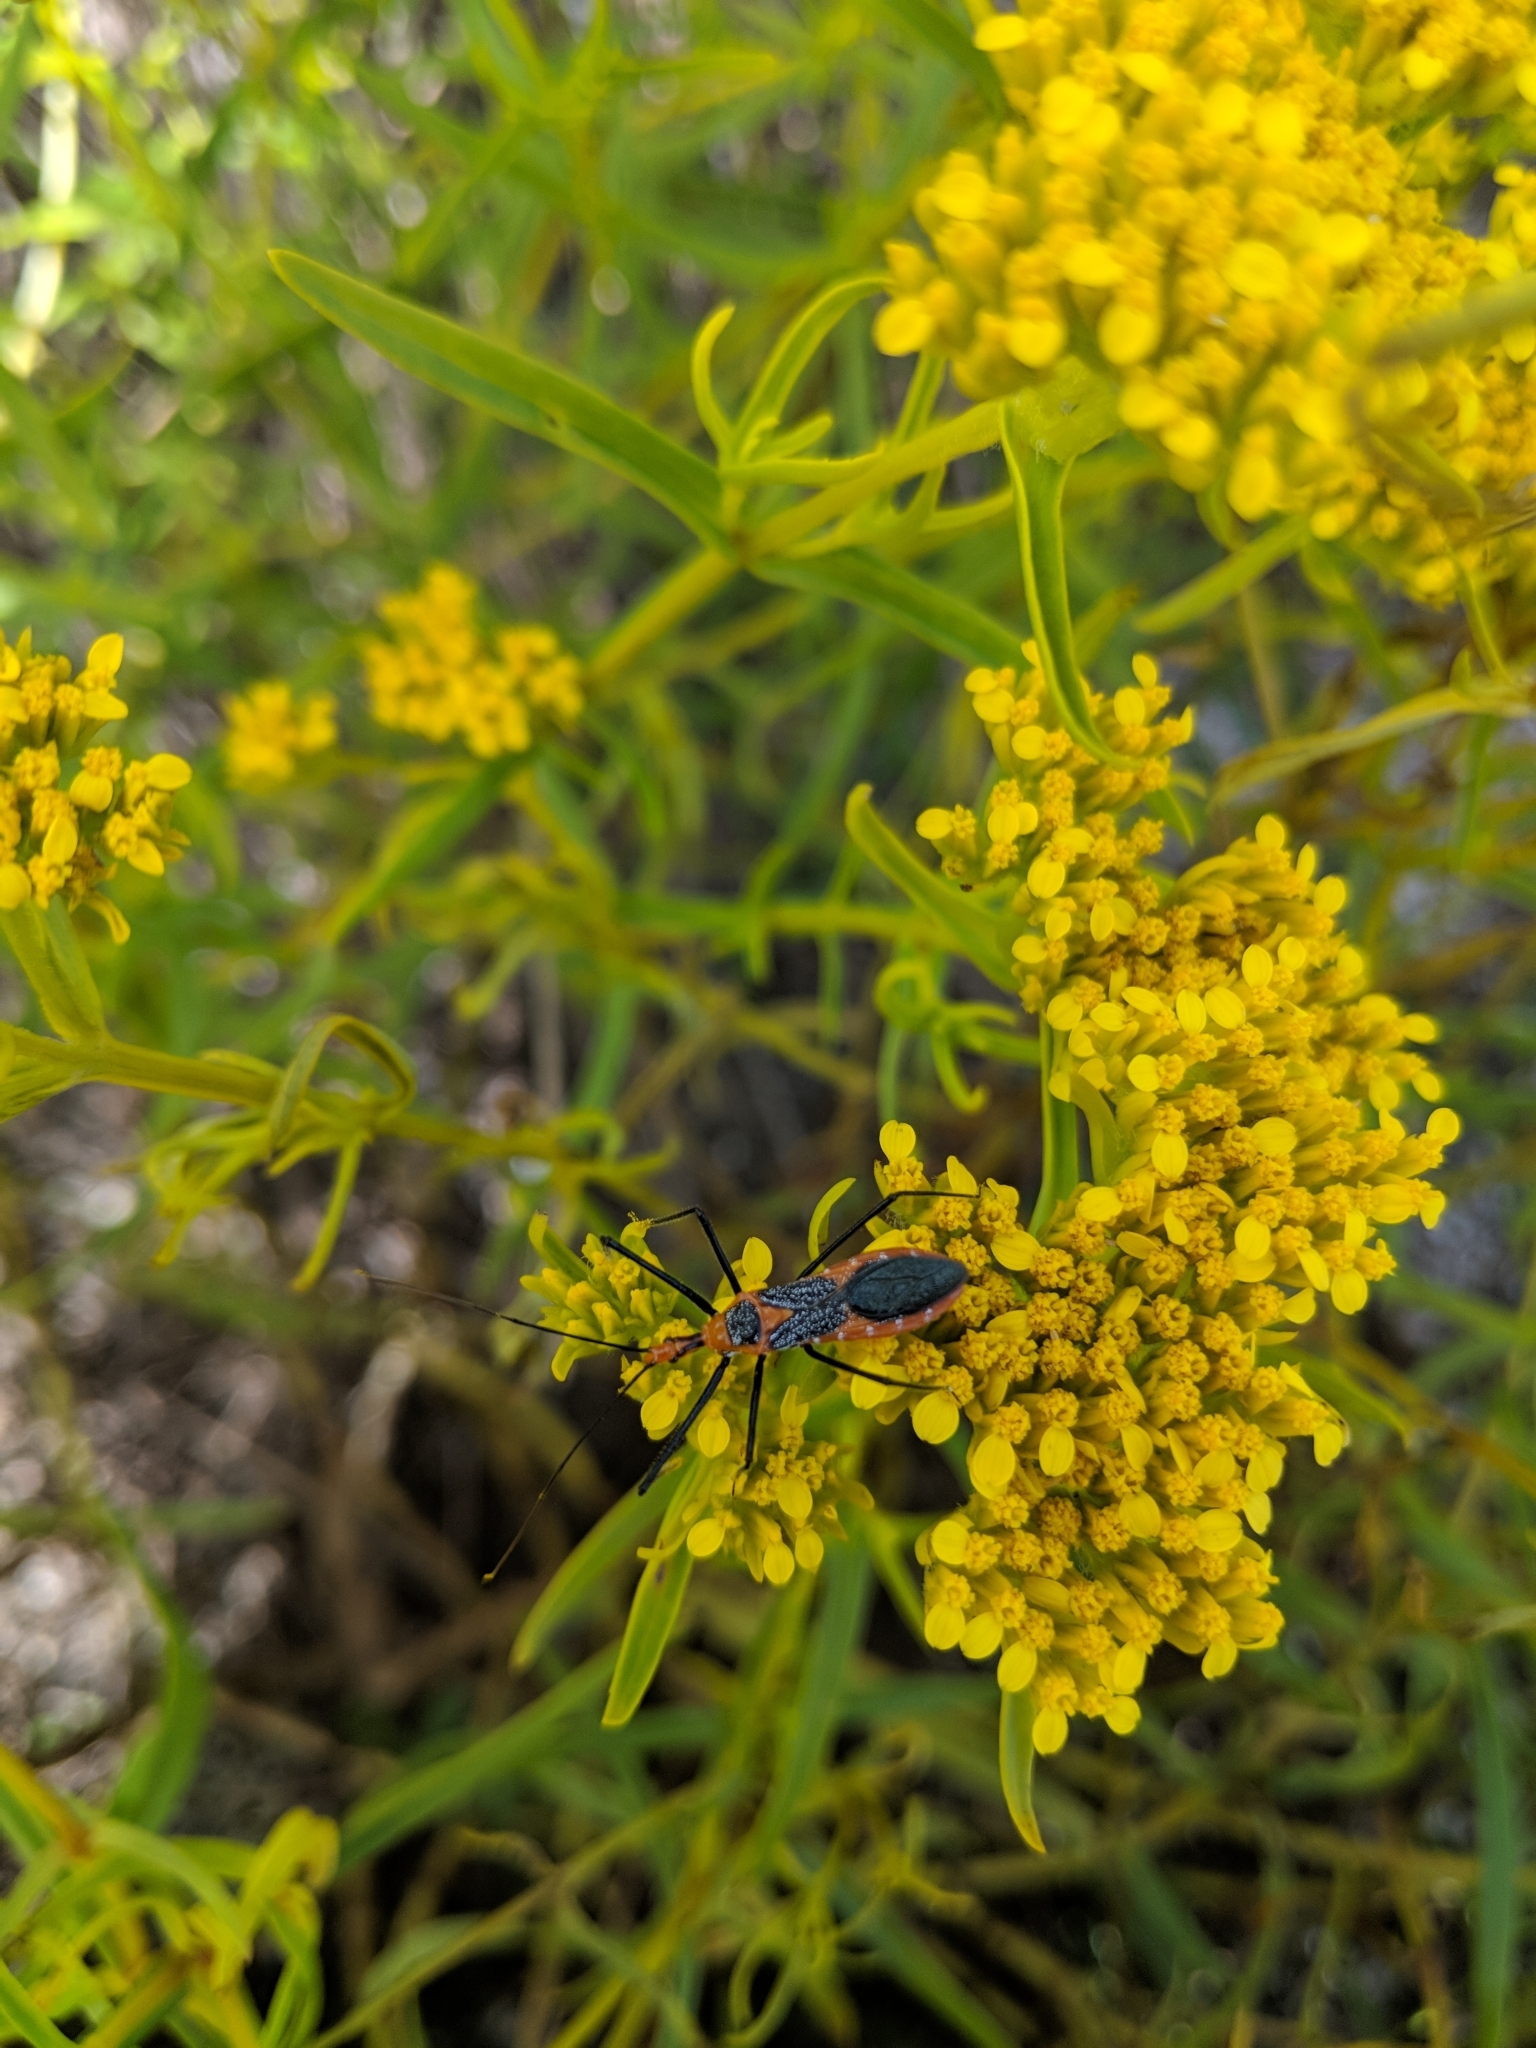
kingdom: Animalia
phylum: Arthropoda
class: Insecta
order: Hemiptera
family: Reduviidae
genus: Zelus
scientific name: Zelus longipes
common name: Milkweed assassin bug
